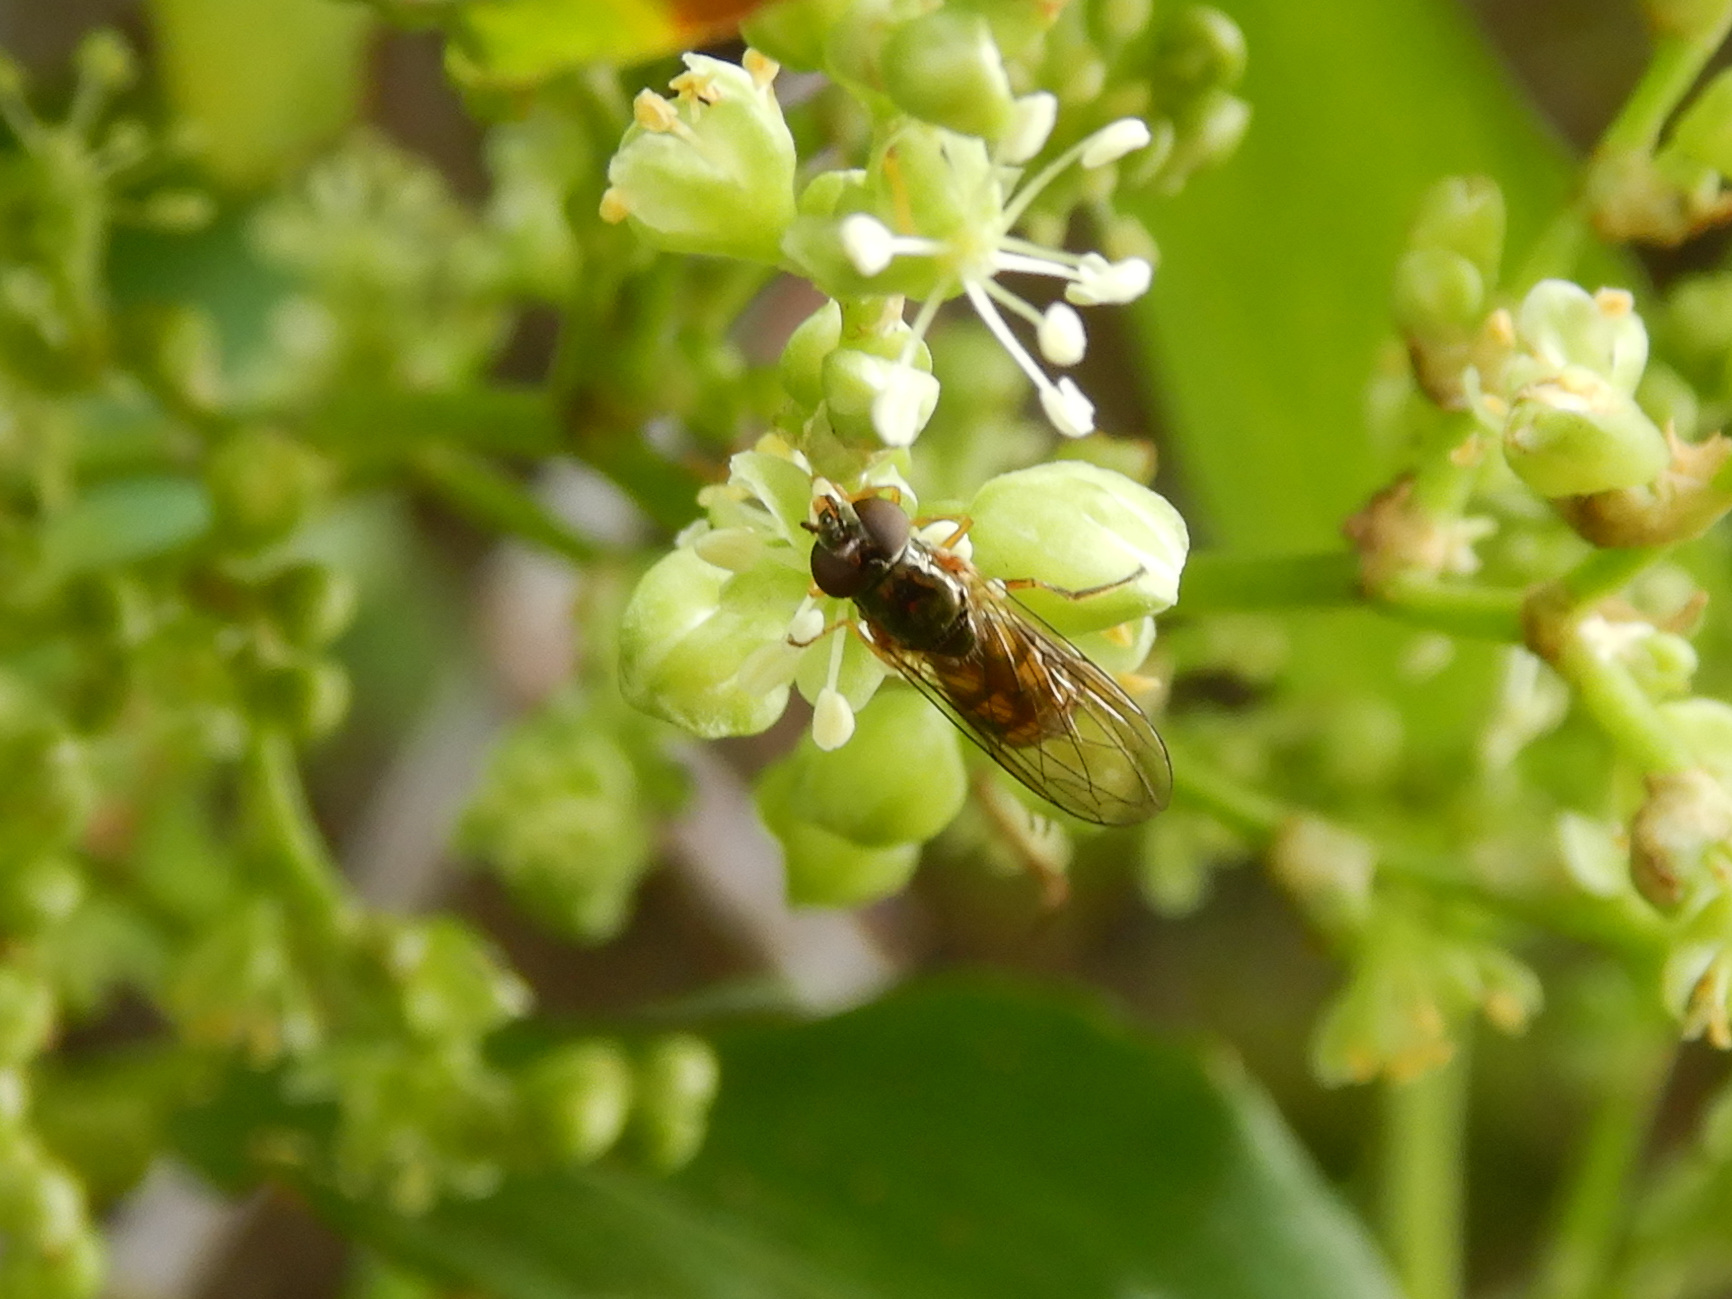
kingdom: Animalia
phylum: Arthropoda
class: Insecta
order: Diptera
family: Syrphidae
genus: Melanostoma
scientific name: Melanostoma fasciatum
